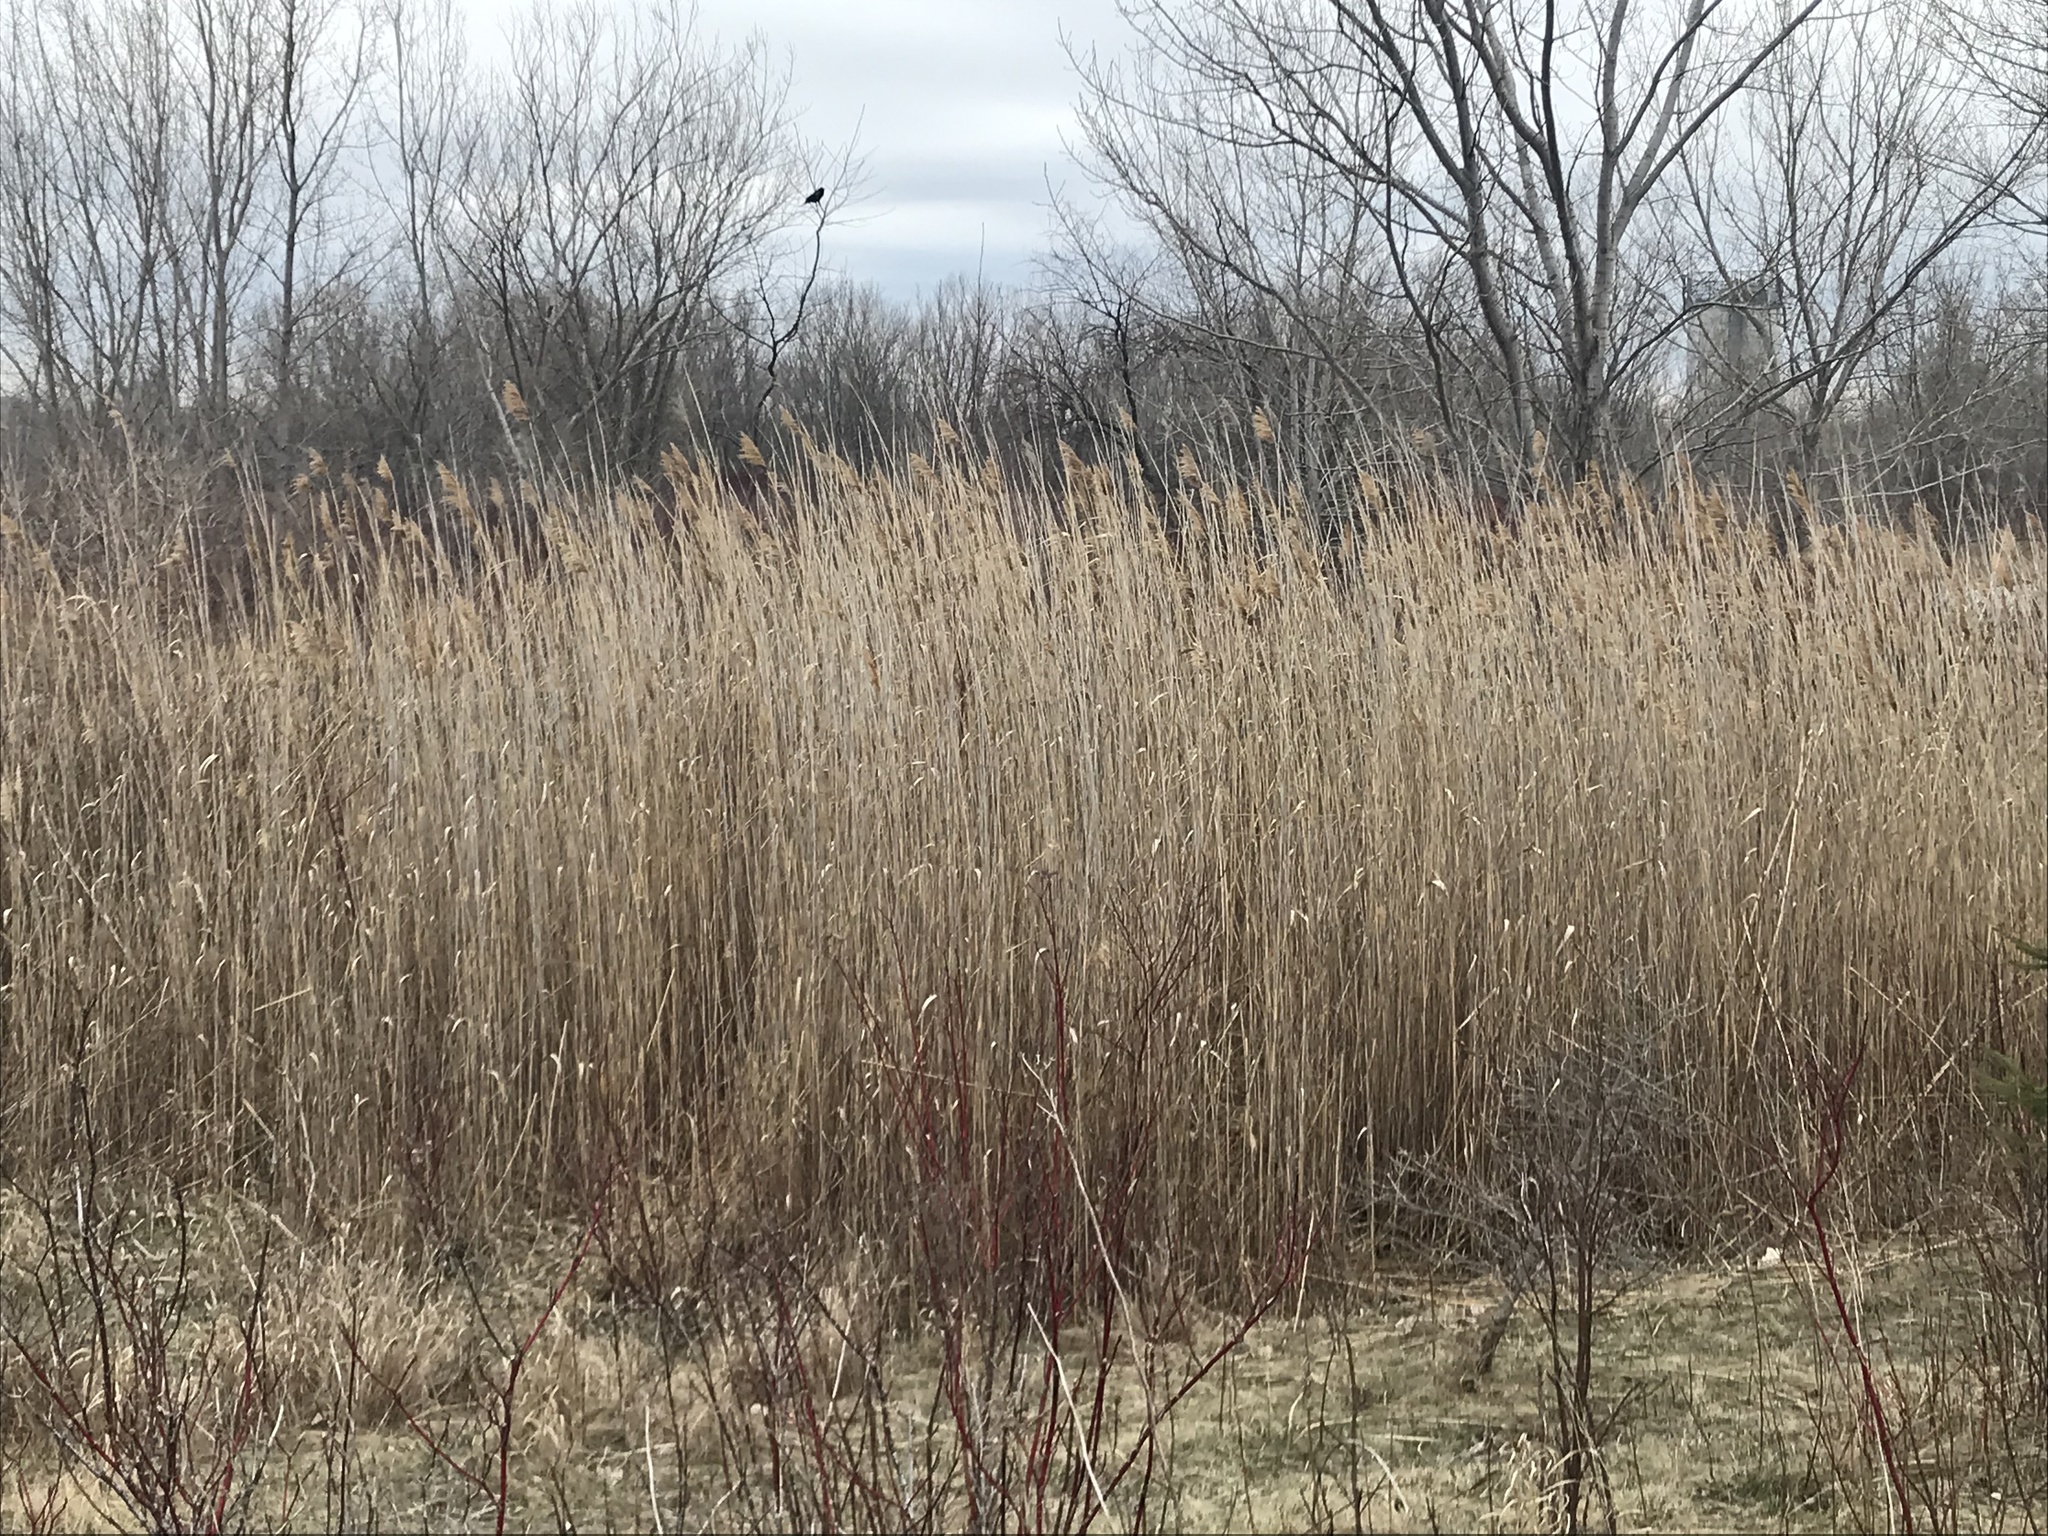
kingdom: Plantae
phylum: Tracheophyta
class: Liliopsida
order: Poales
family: Poaceae
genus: Phragmites
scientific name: Phragmites australis
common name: Common reed
